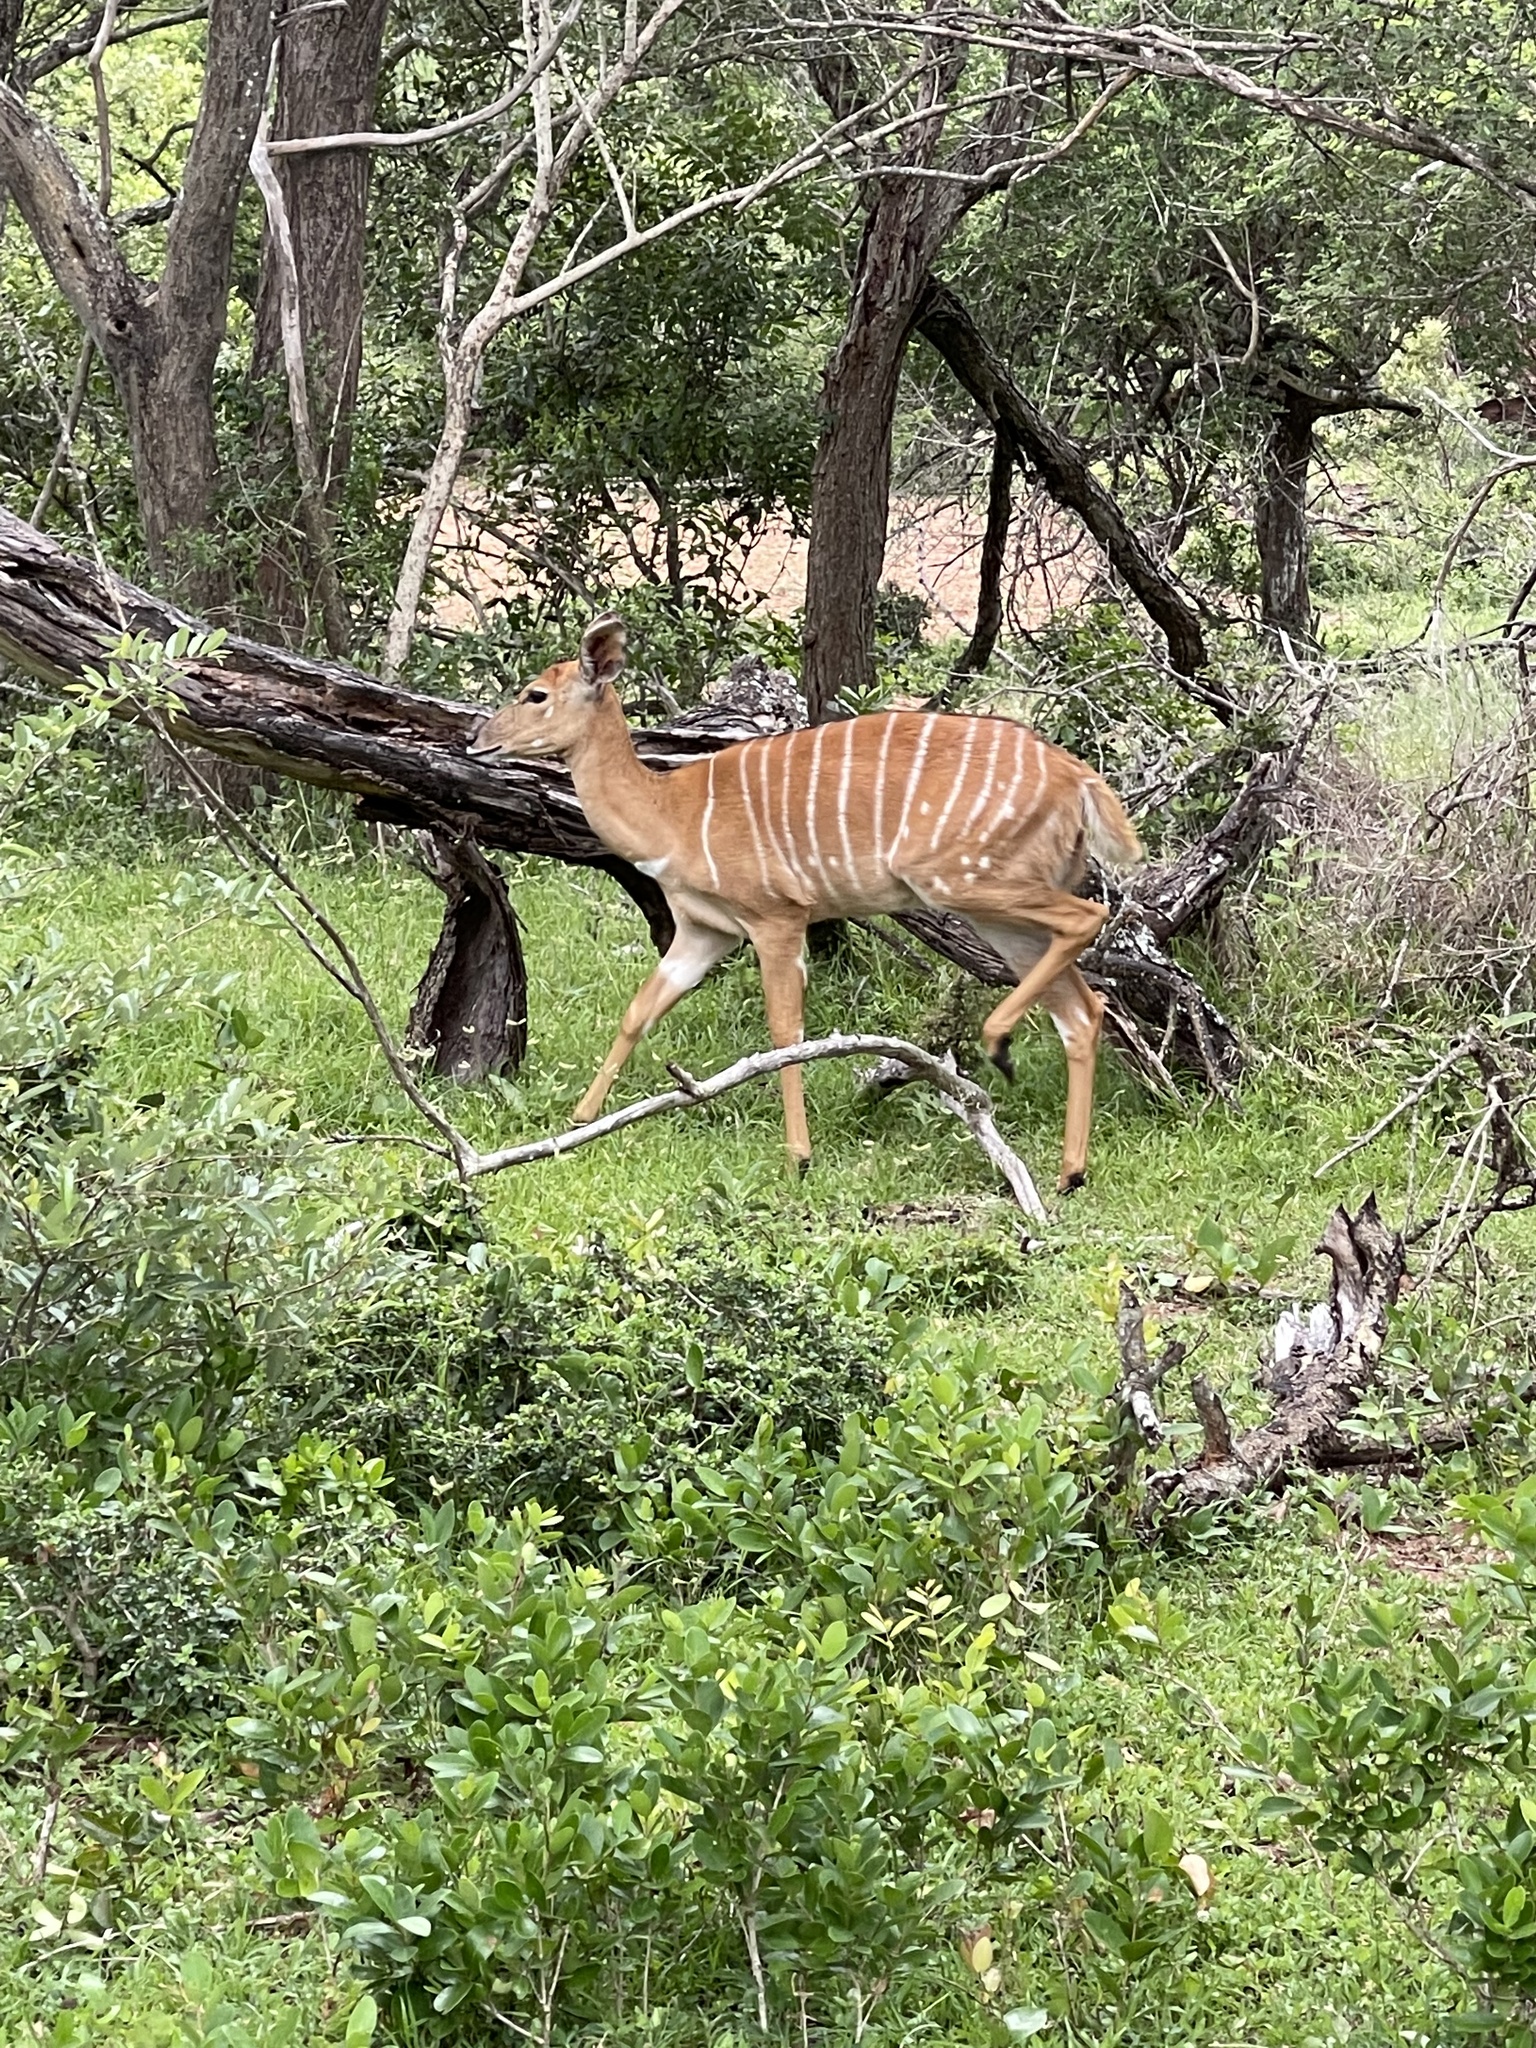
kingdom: Animalia
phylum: Chordata
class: Mammalia
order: Artiodactyla
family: Bovidae
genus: Tragelaphus
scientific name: Tragelaphus angasii
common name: Nyala
